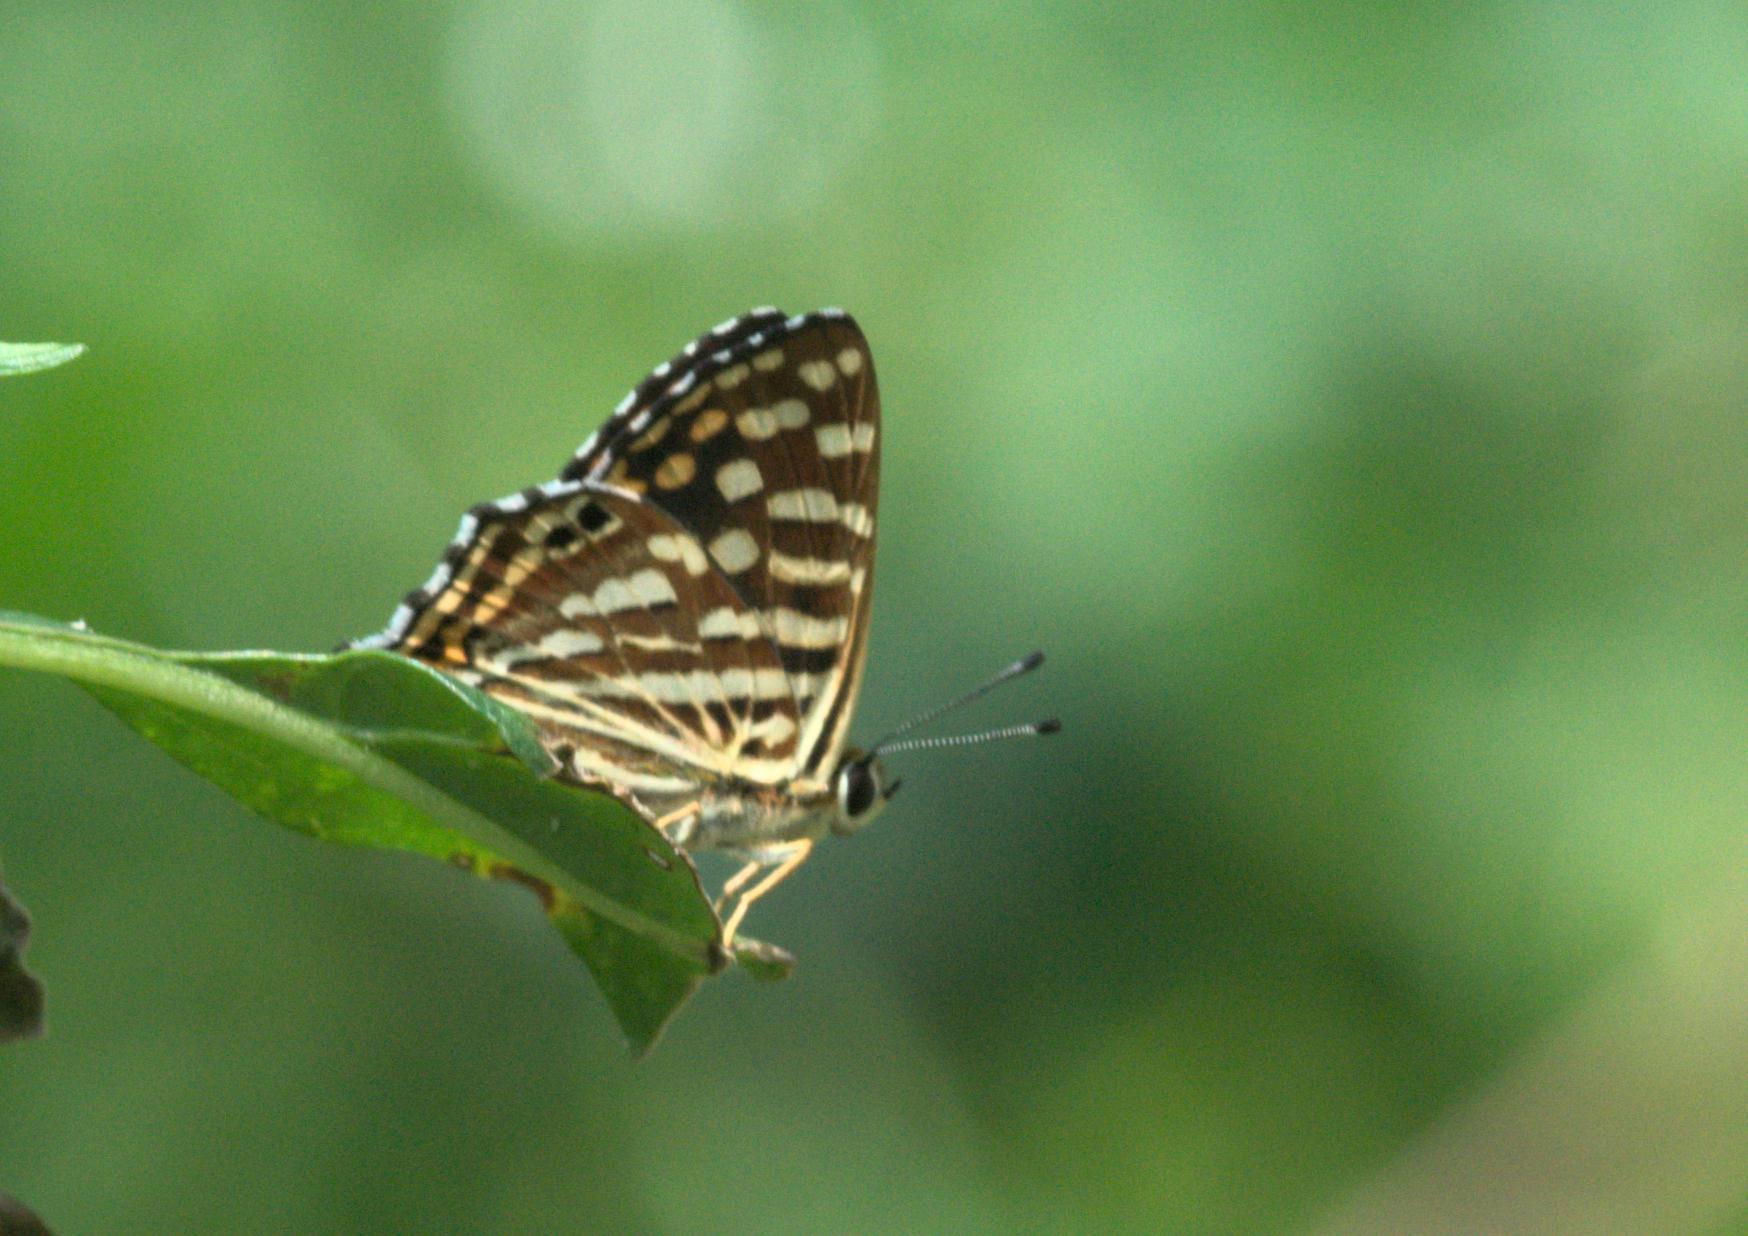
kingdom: Animalia
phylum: Arthropoda
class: Insecta
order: Lepidoptera
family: Lycaenidae
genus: Dodona
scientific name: Dodona durga
